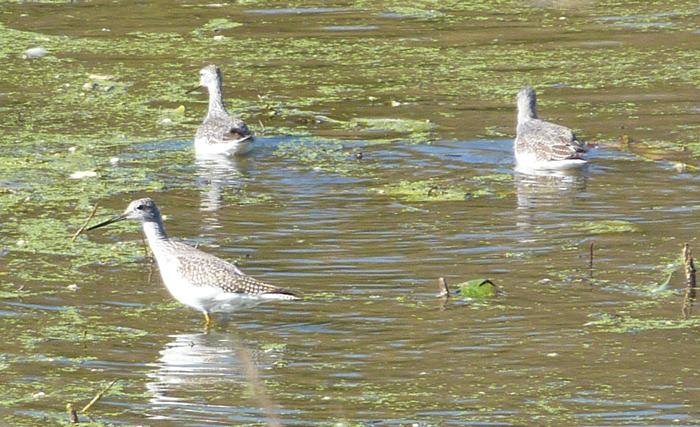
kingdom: Animalia
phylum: Chordata
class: Aves
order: Charadriiformes
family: Scolopacidae
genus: Tringa
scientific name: Tringa melanoleuca
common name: Greater yellowlegs
